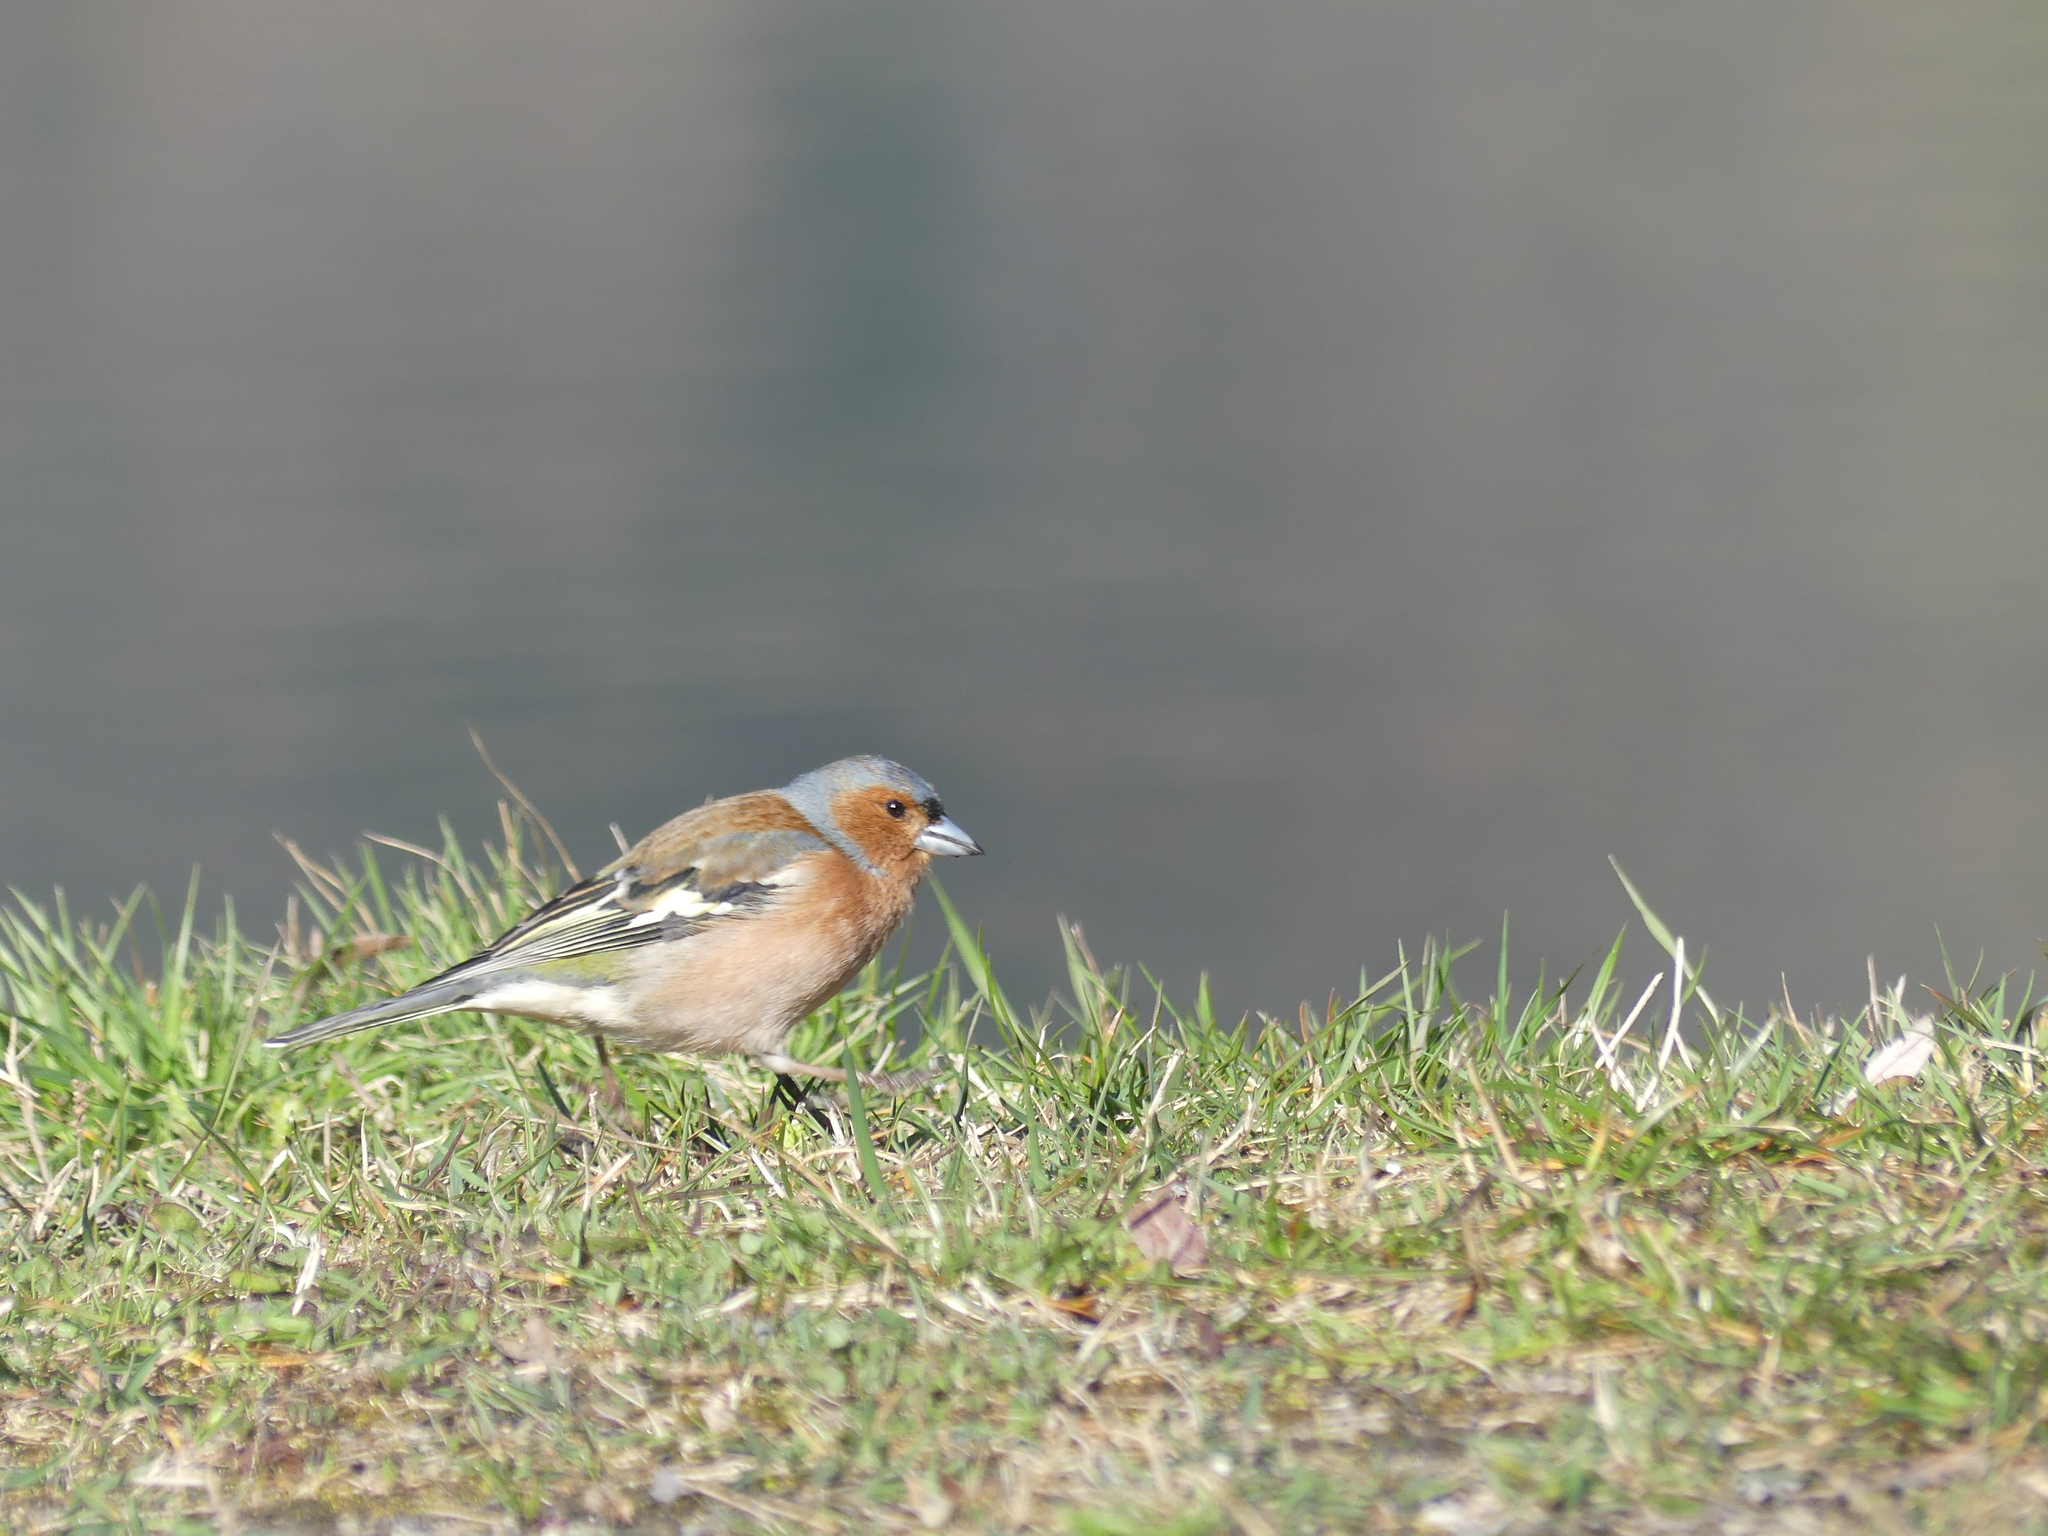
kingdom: Animalia
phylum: Chordata
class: Aves
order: Passeriformes
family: Fringillidae
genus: Fringilla
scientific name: Fringilla coelebs
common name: Common chaffinch
